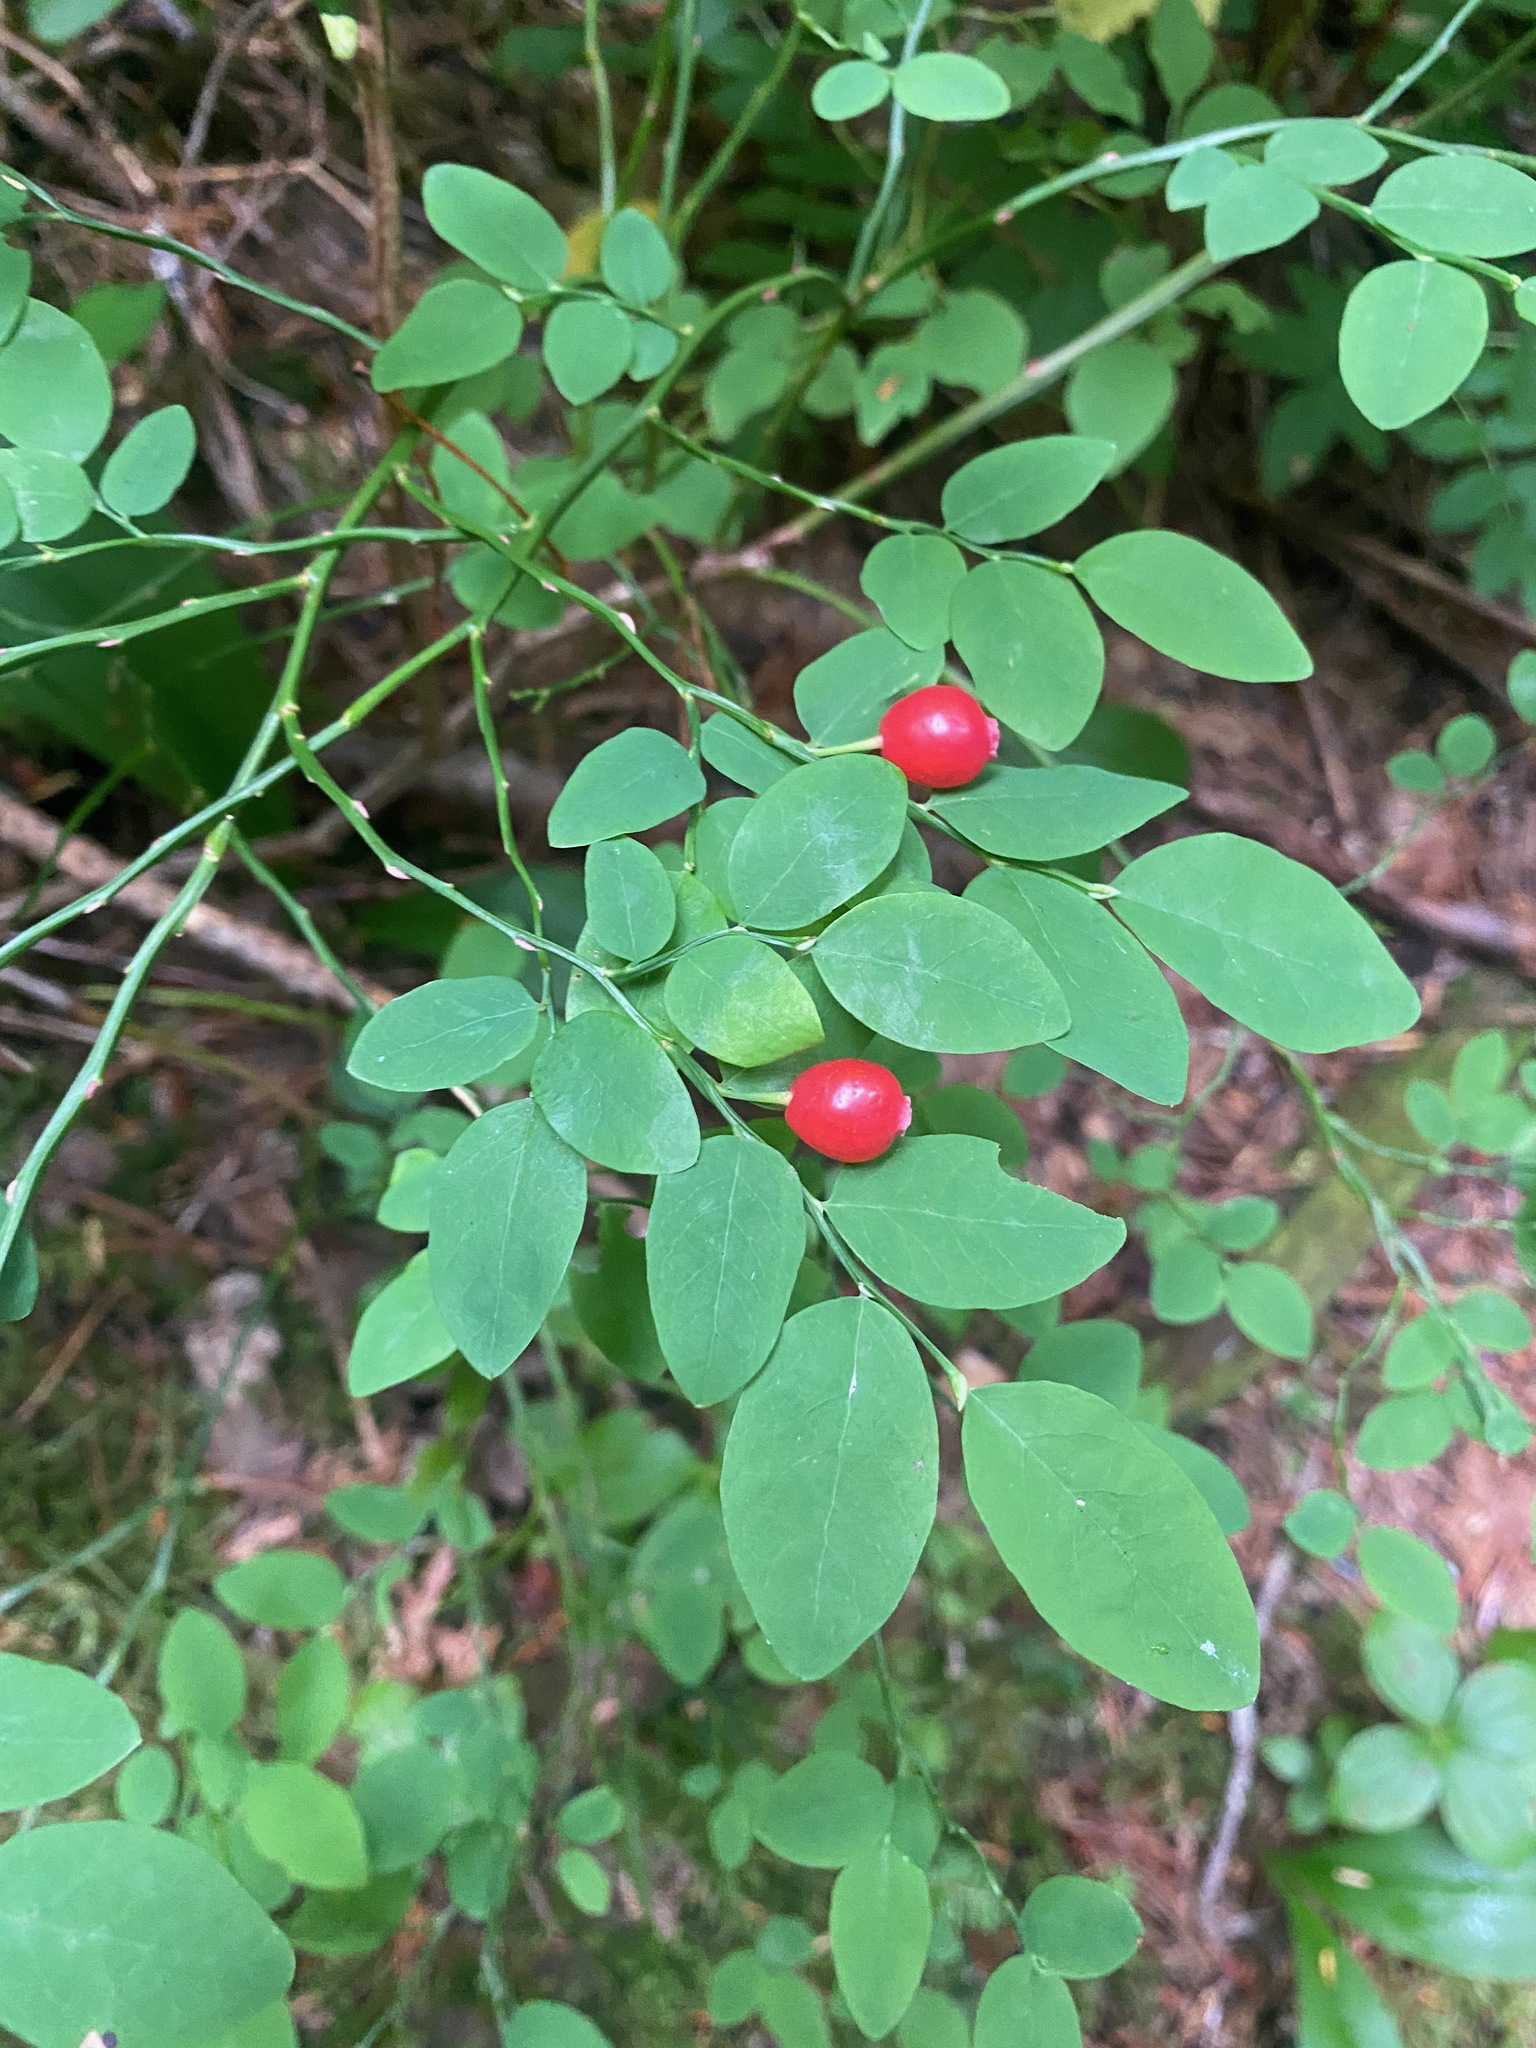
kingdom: Plantae
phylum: Tracheophyta
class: Magnoliopsida
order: Ericales
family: Ericaceae
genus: Vaccinium
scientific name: Vaccinium parvifolium
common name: Red-huckleberry
